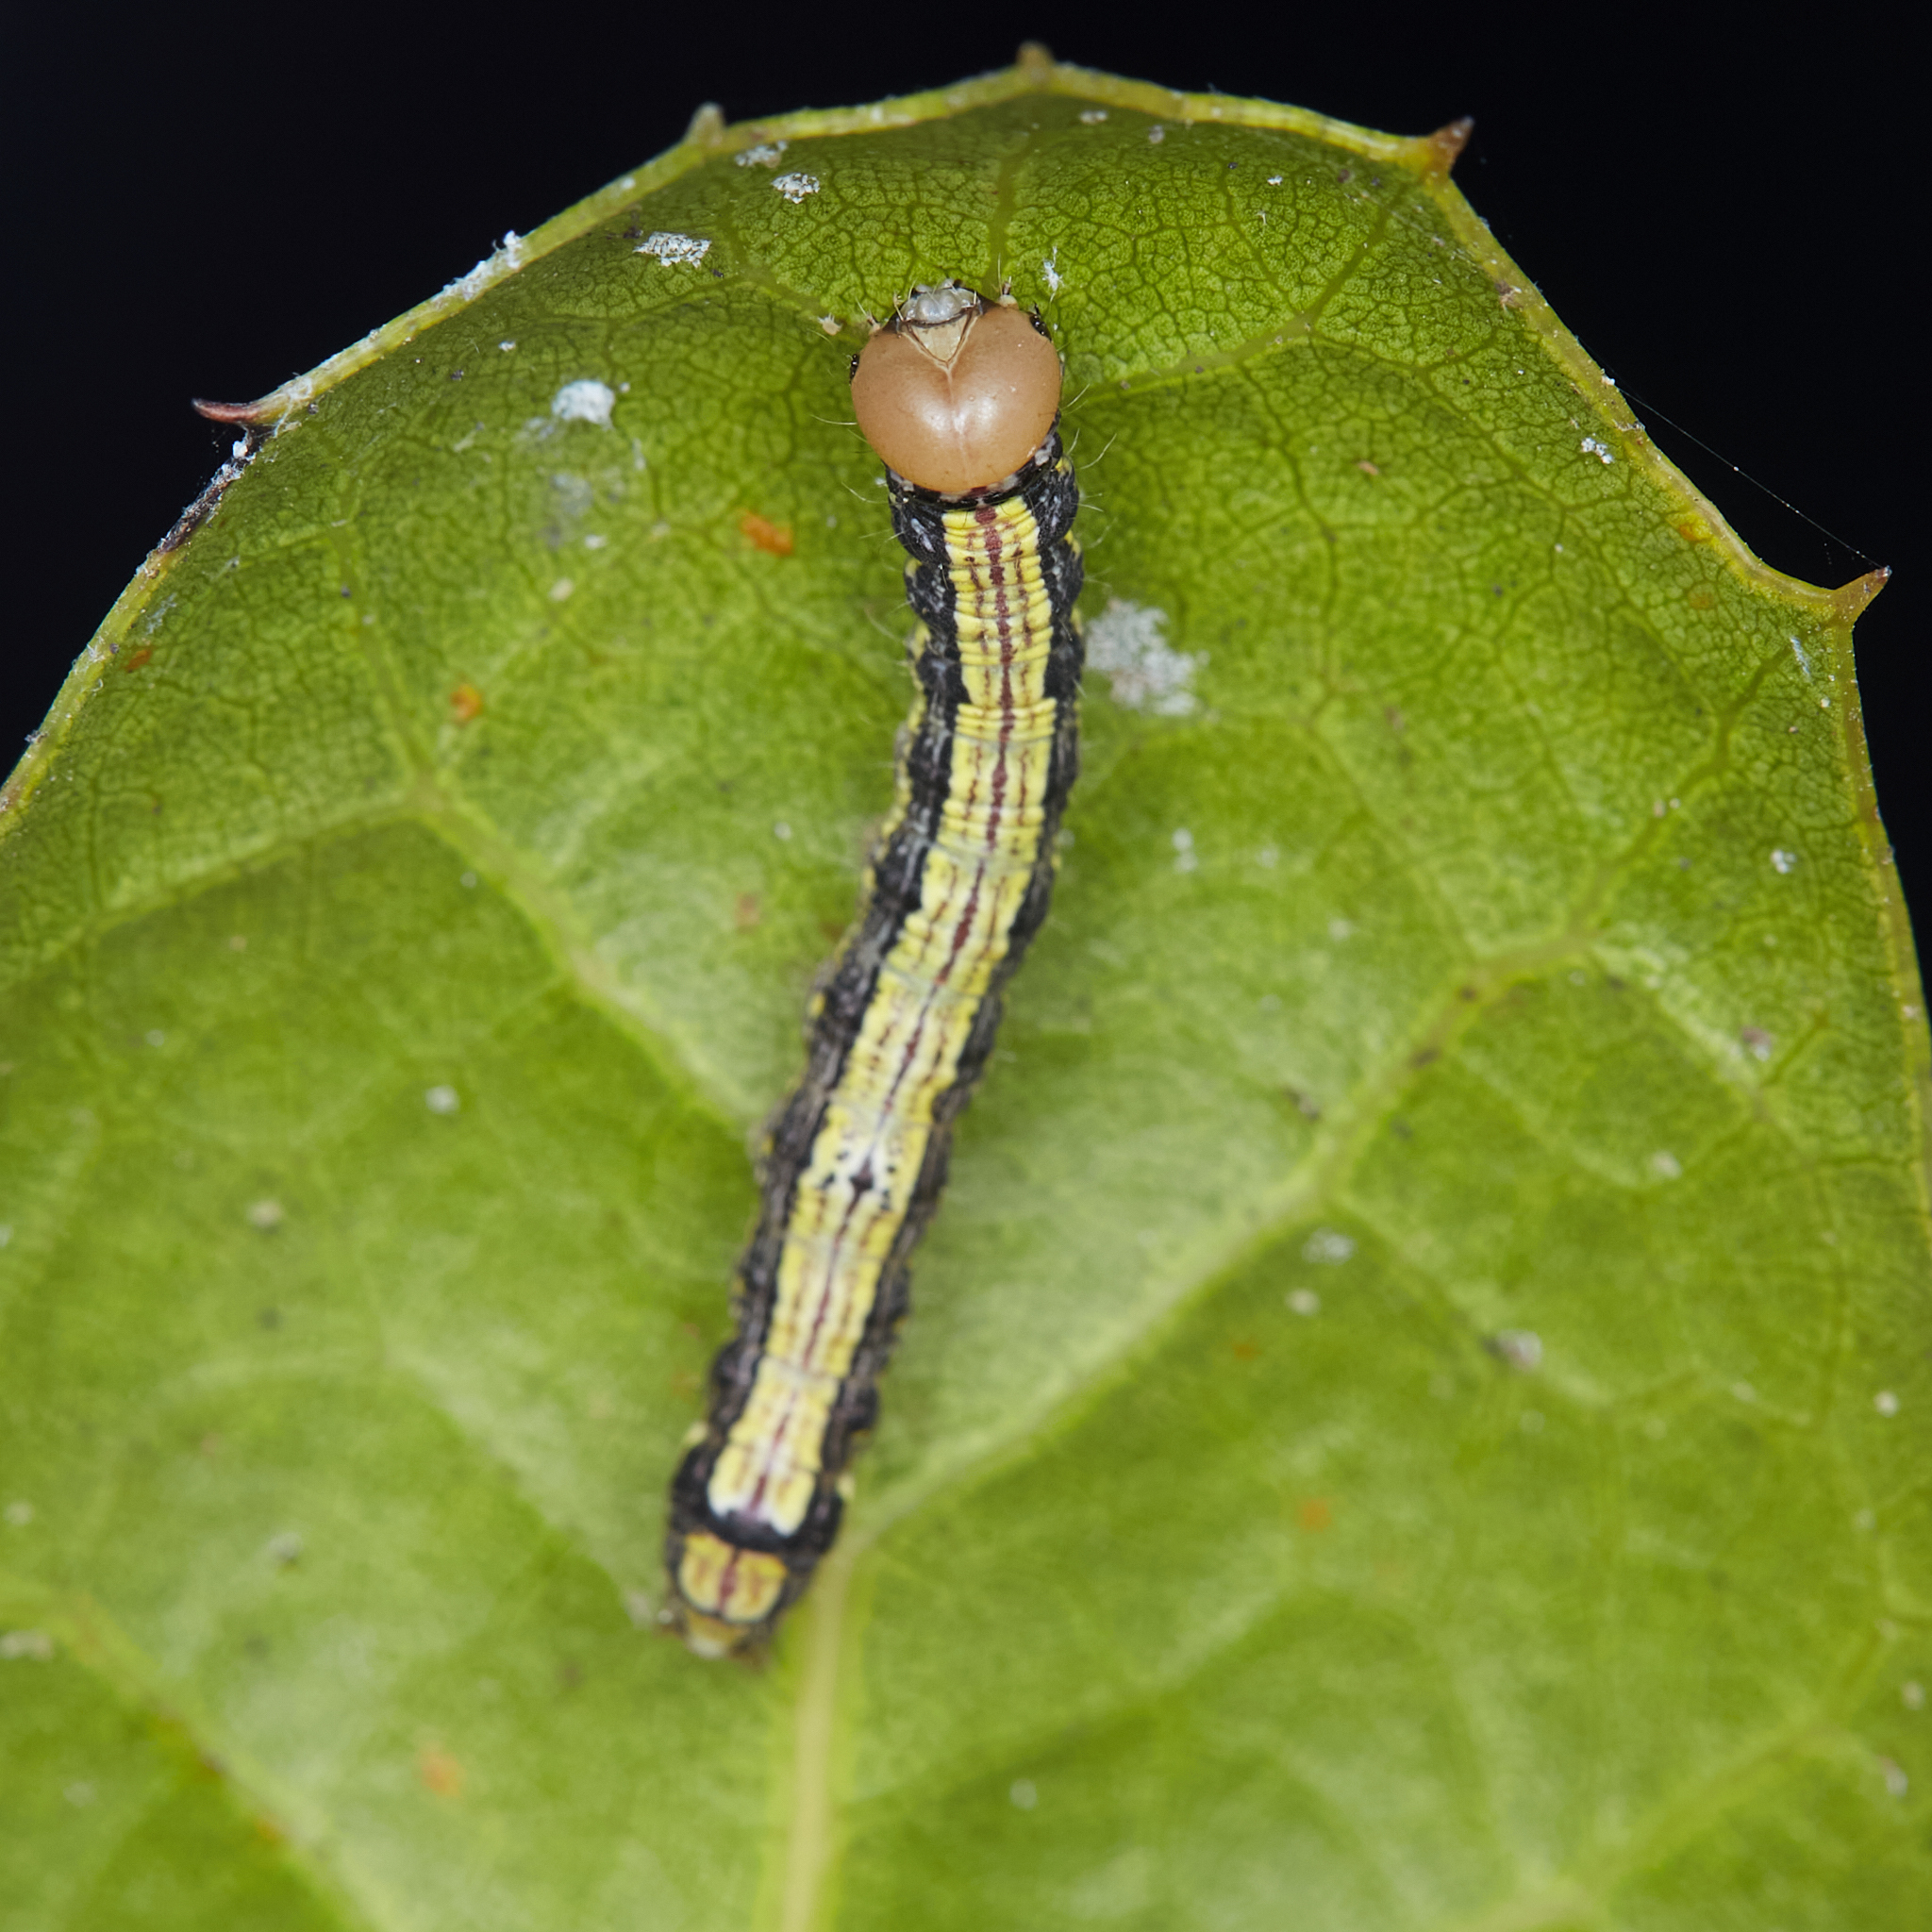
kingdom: Animalia
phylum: Arthropoda
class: Insecta
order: Lepidoptera
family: Notodontidae
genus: Phryganidia
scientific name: Phryganidia californica
